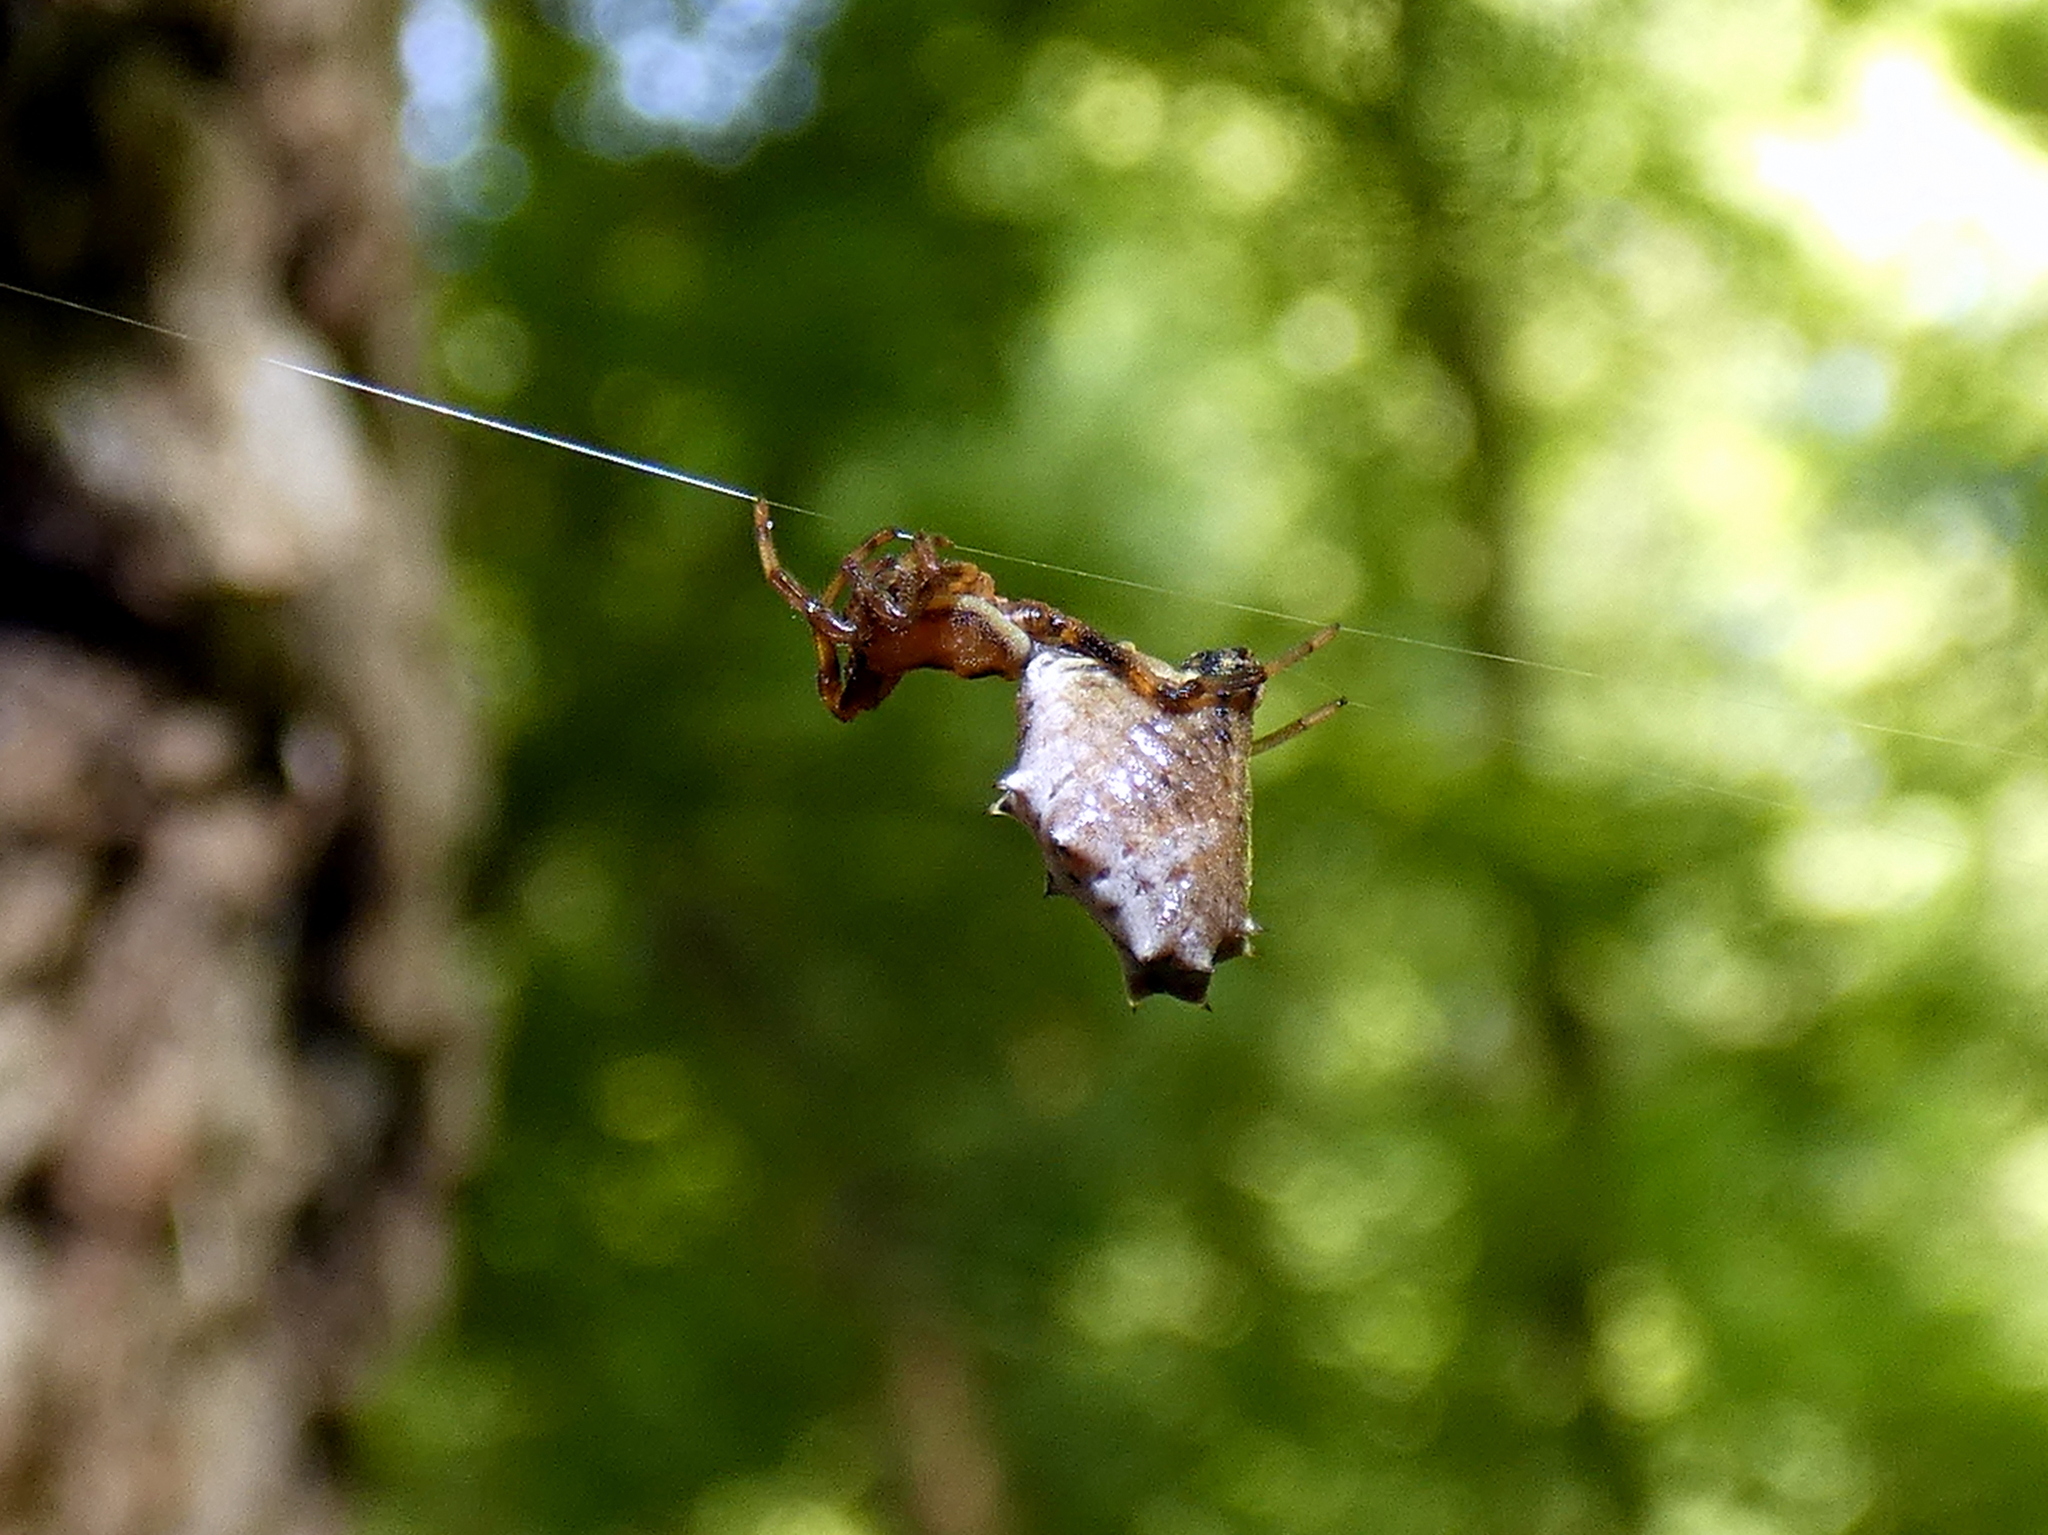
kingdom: Animalia
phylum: Arthropoda
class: Arachnida
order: Araneae
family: Araneidae
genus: Micrathena
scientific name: Micrathena gracilis
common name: Orb weavers
